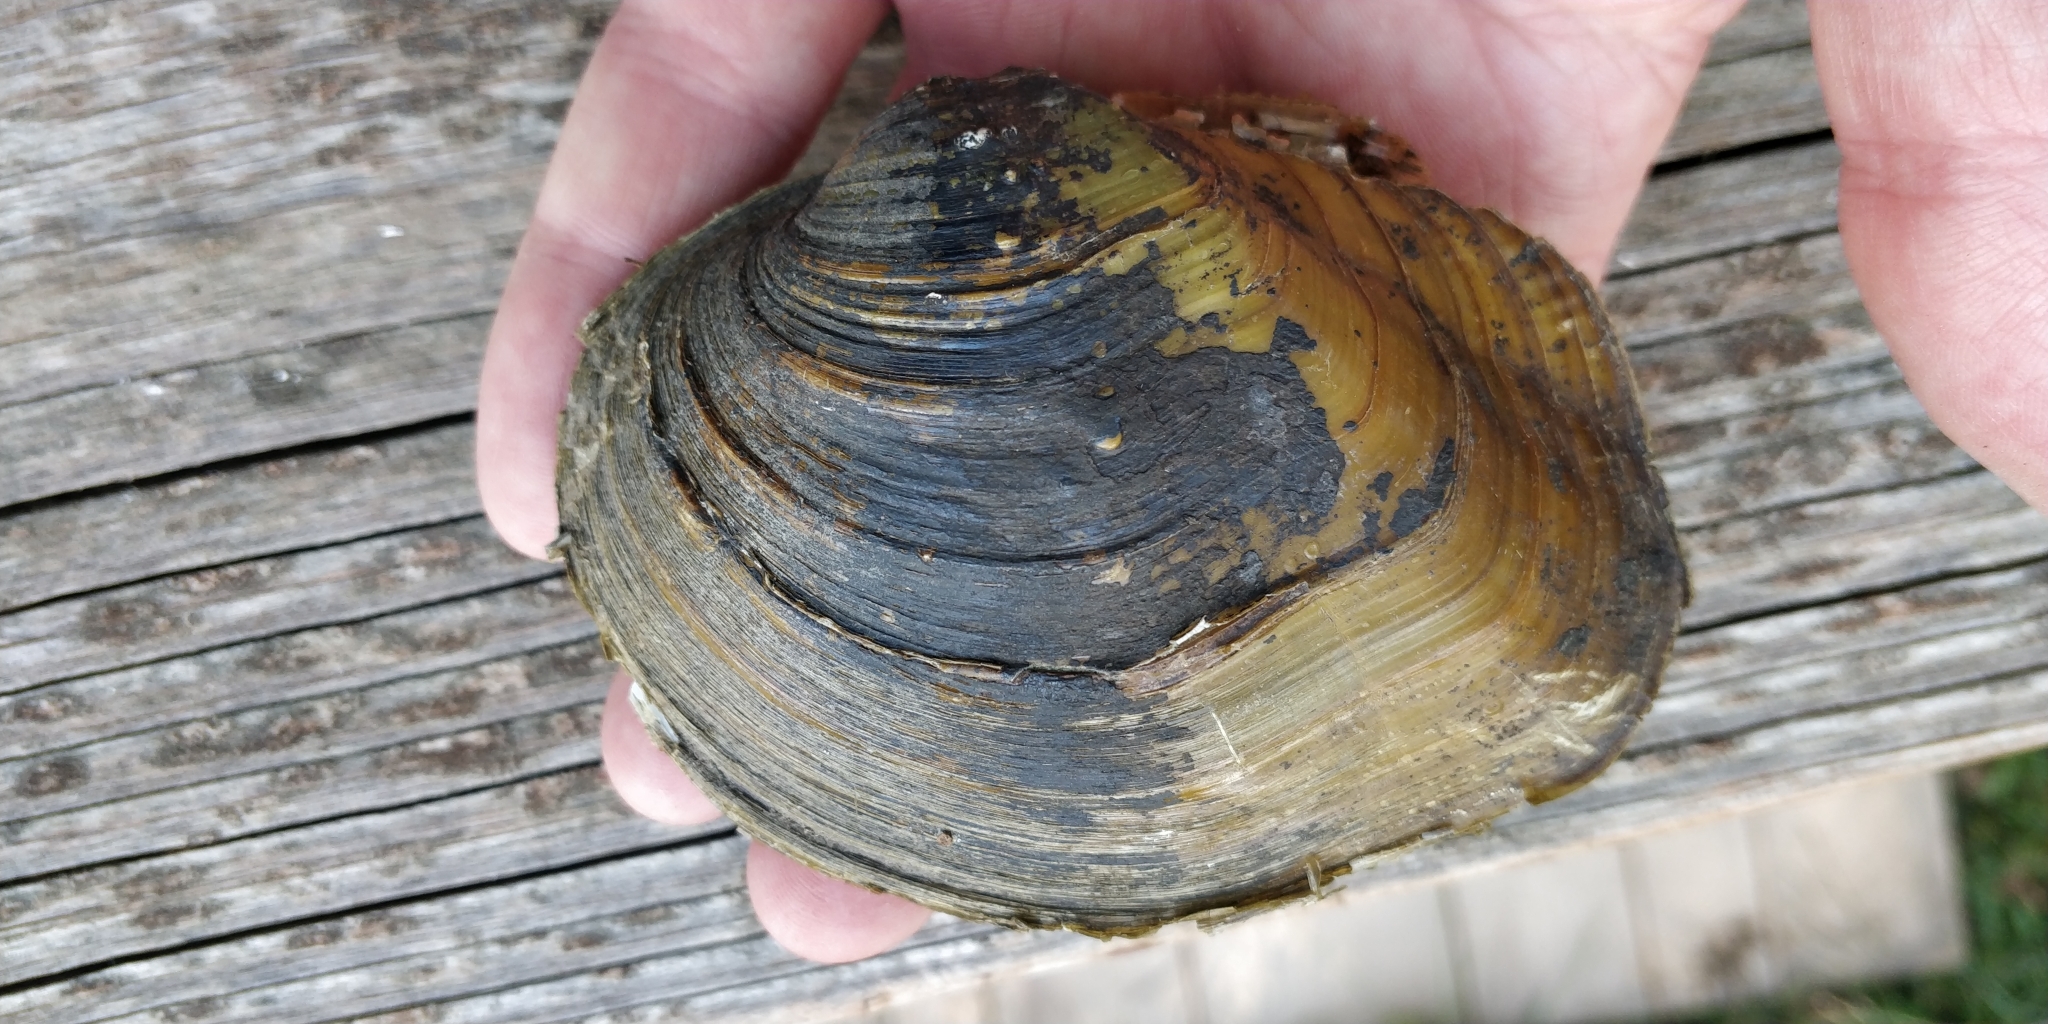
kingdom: Animalia
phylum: Mollusca
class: Bivalvia
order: Unionida
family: Unionidae
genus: Quadrula
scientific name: Quadrula quadrula
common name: Mapleleaf
